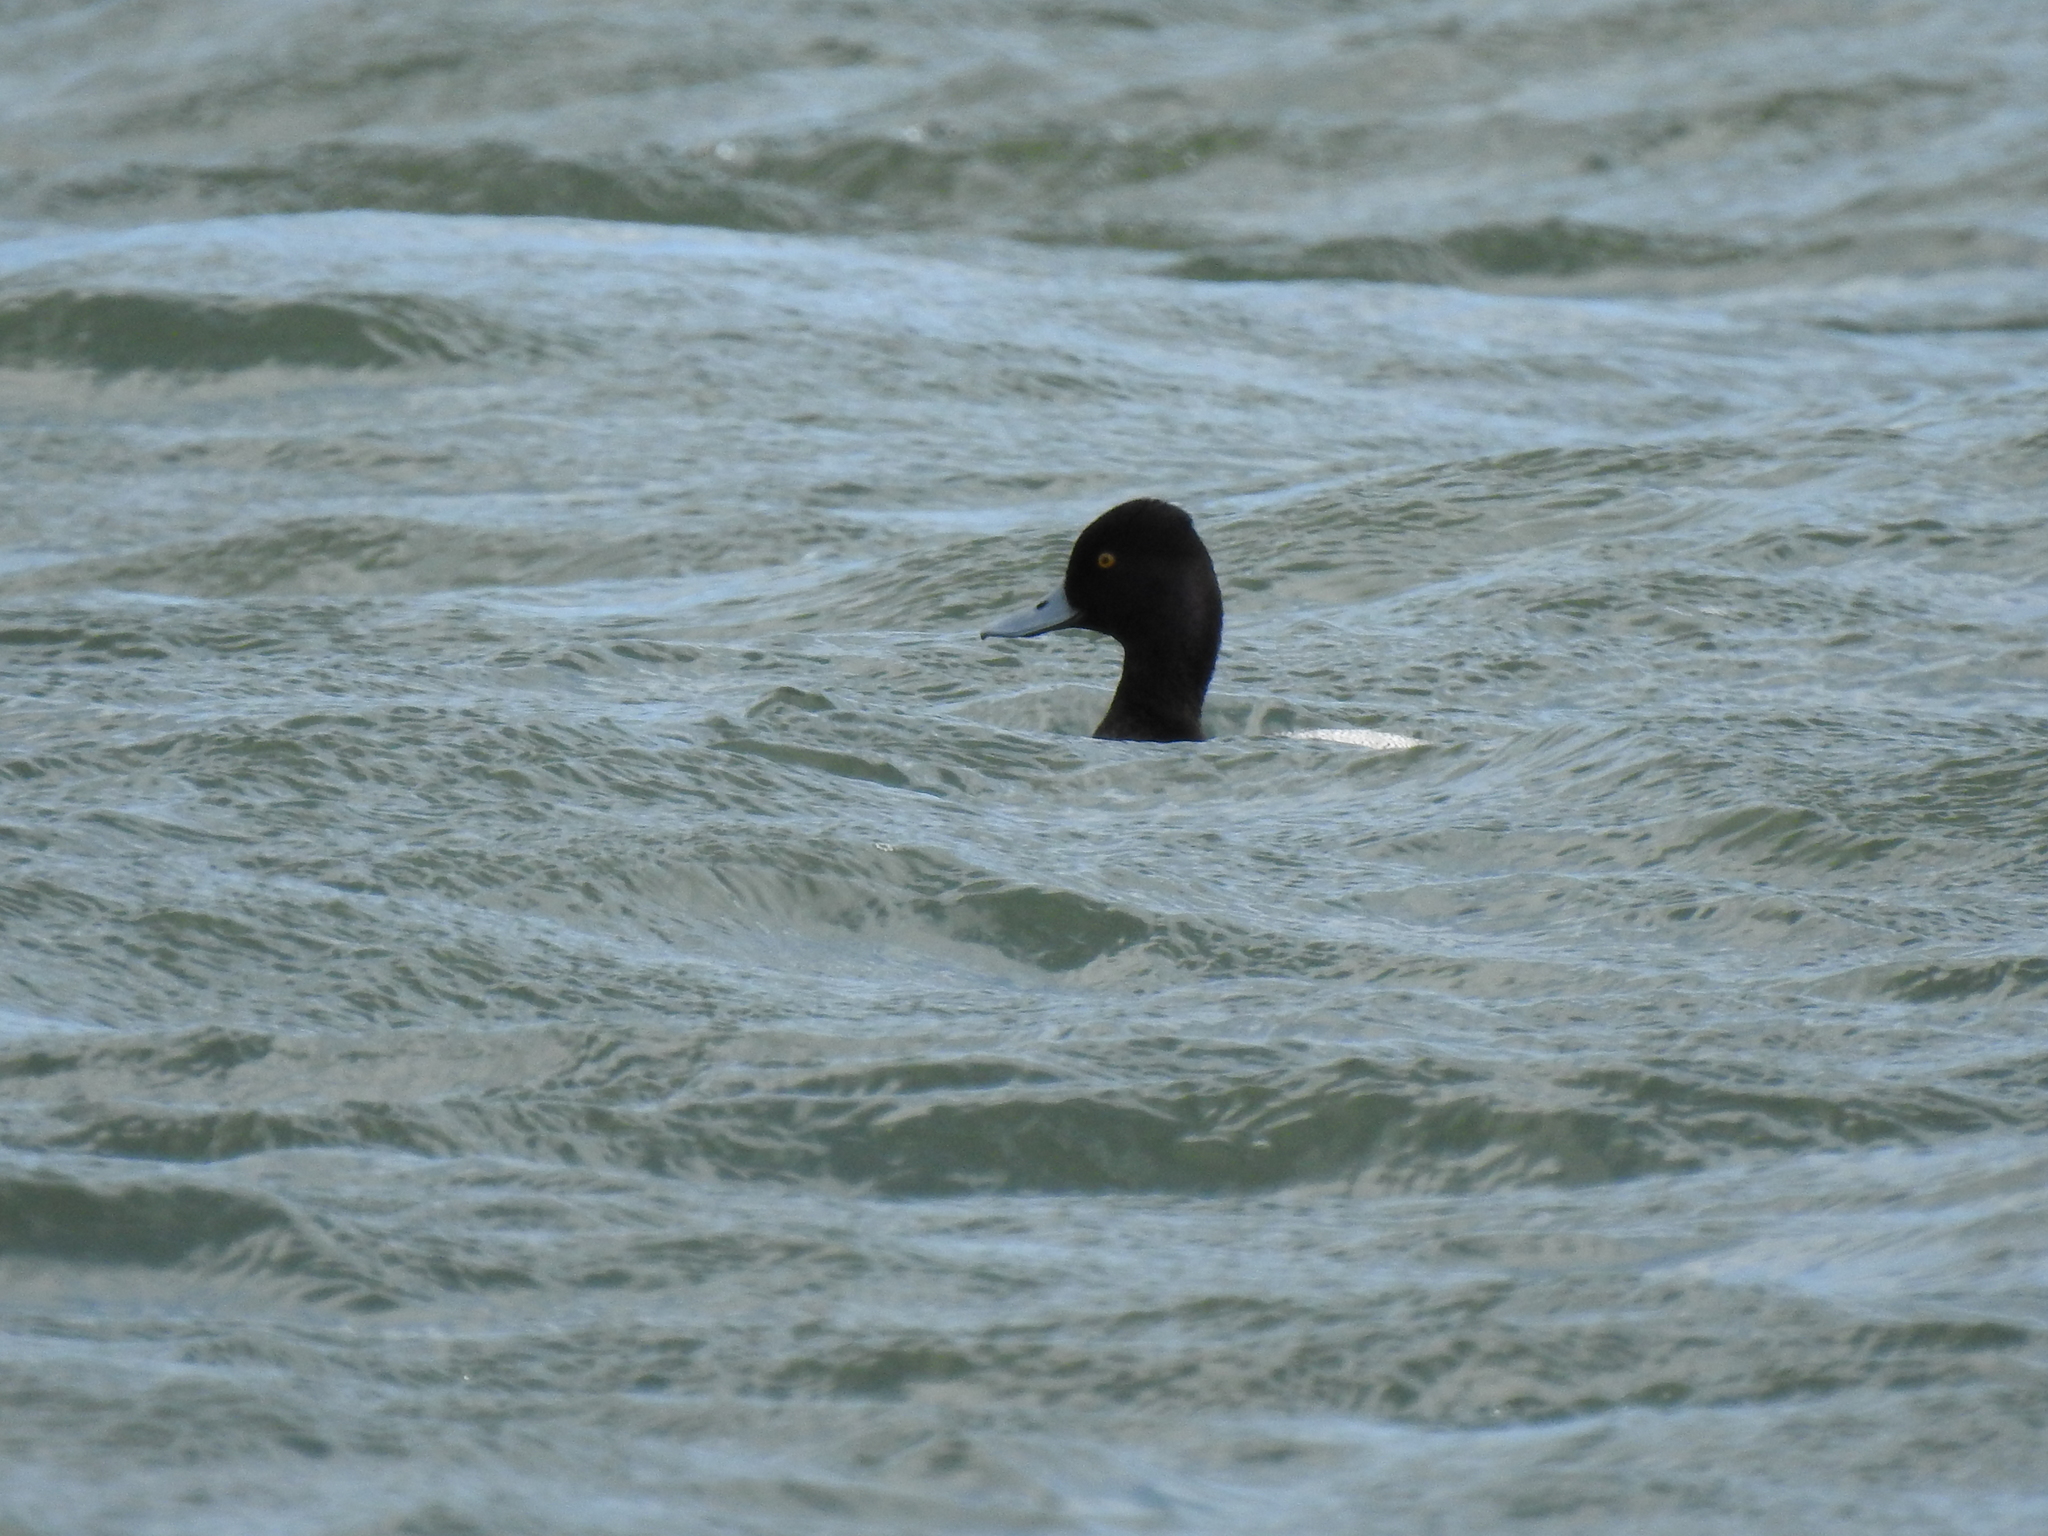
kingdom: Animalia
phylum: Chordata
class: Aves
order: Anseriformes
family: Anatidae
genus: Aythya
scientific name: Aythya affinis
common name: Lesser scaup
